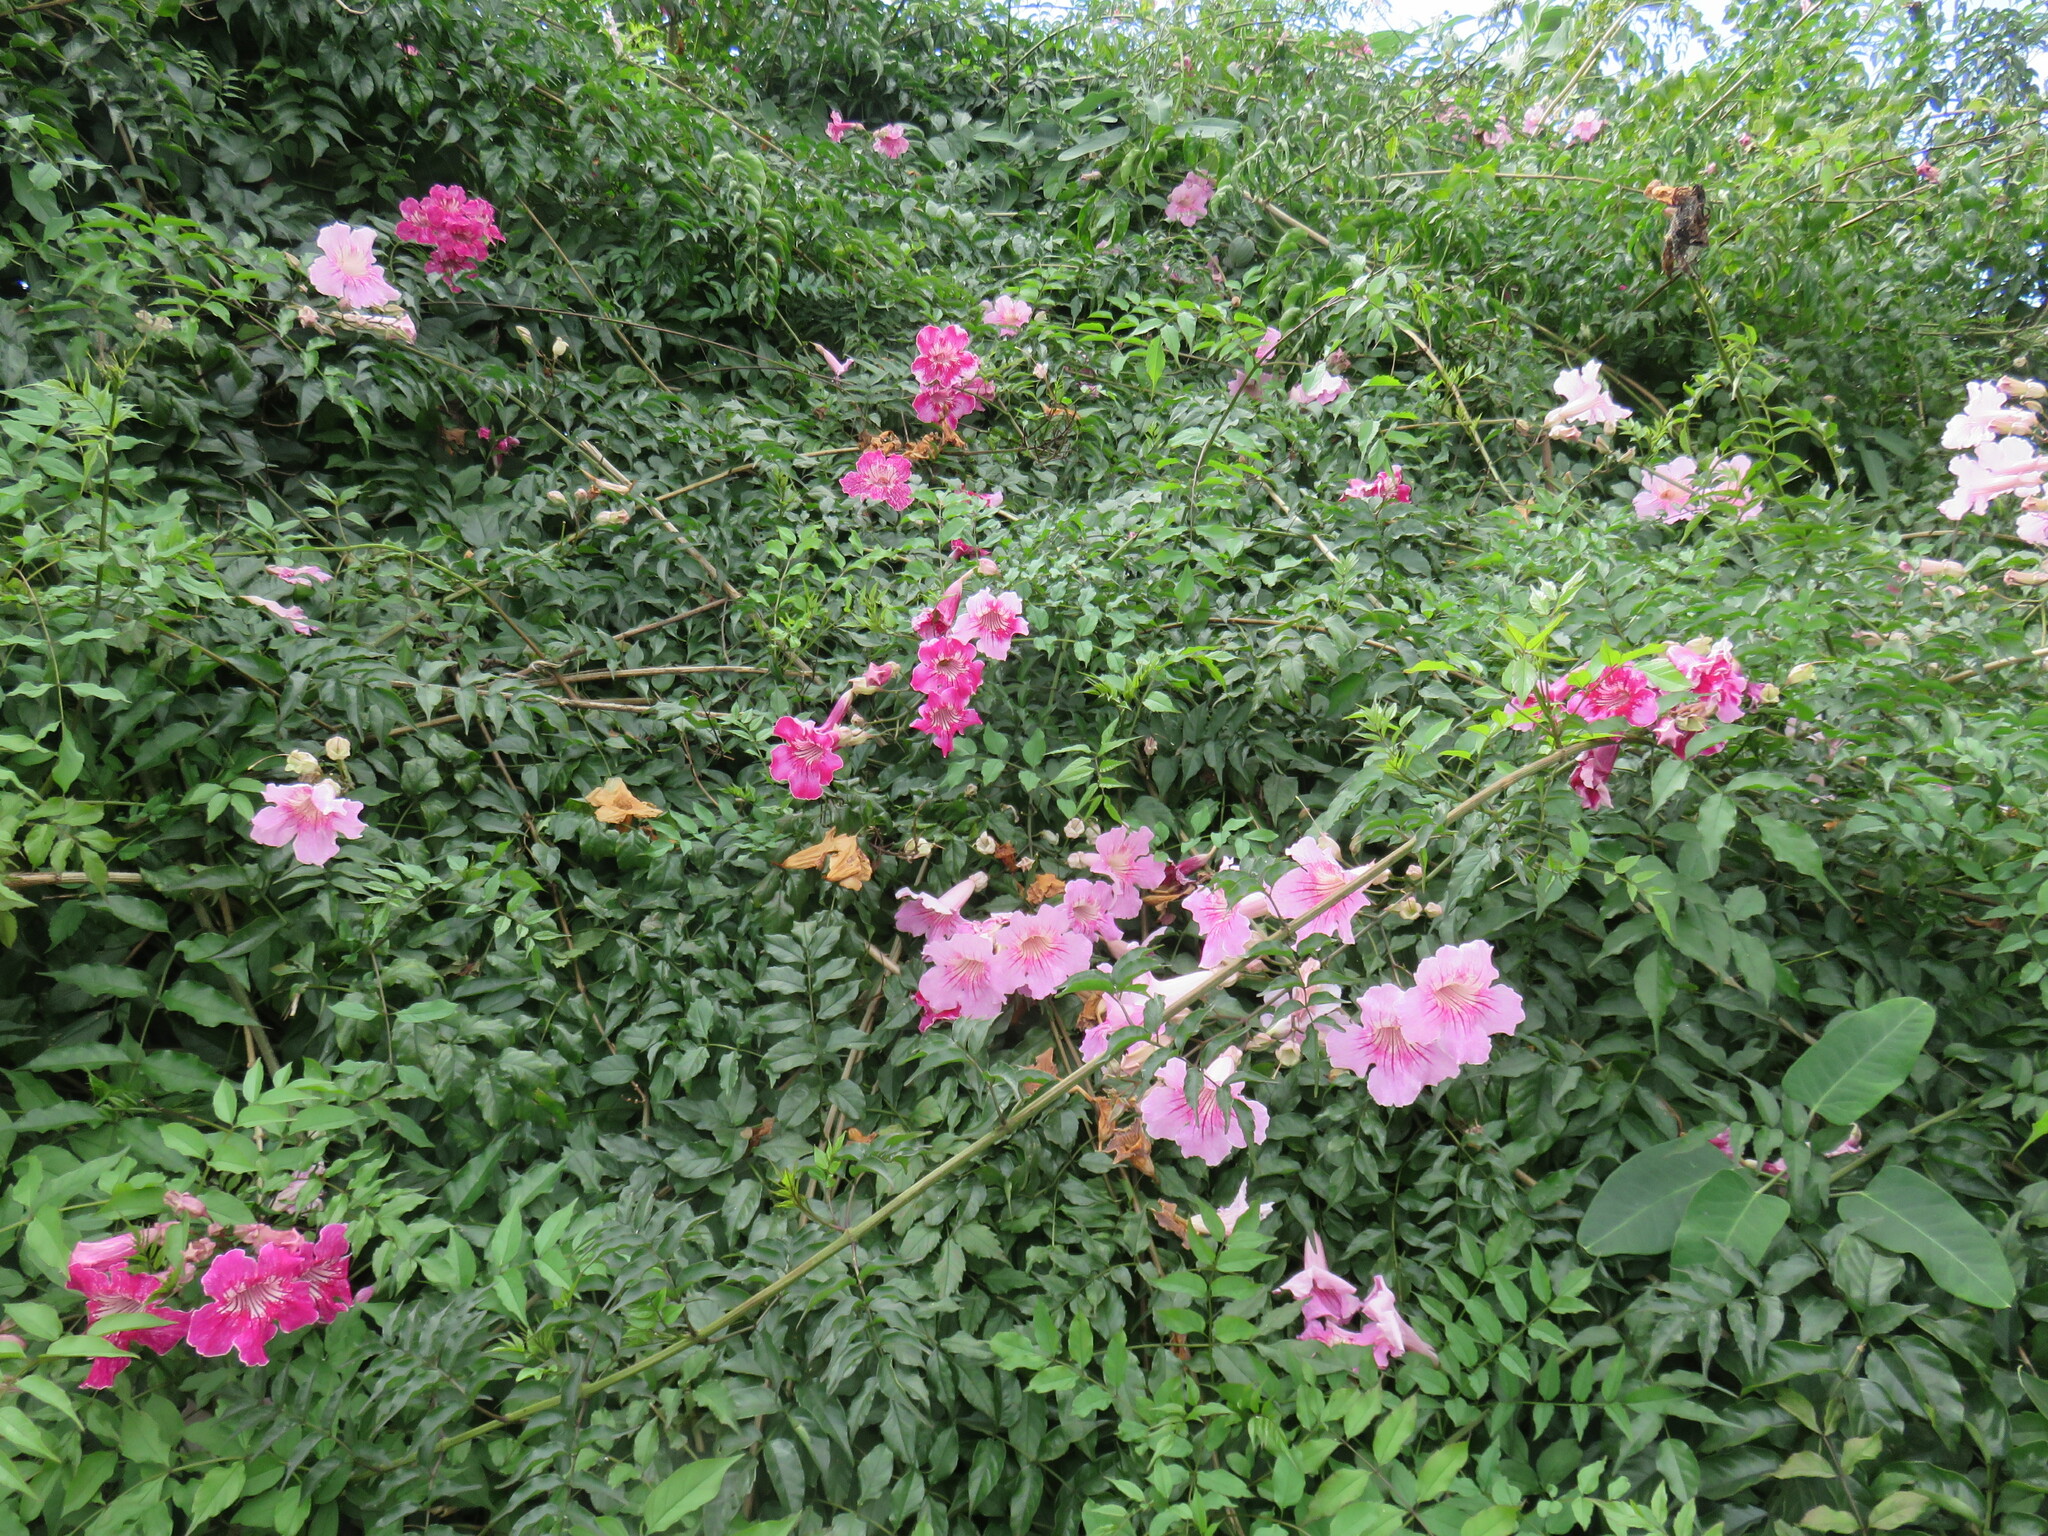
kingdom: Plantae
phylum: Tracheophyta
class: Magnoliopsida
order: Lamiales
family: Bignoniaceae
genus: Podranea
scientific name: Podranea ricasoliana
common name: Zimbabwe creeper
